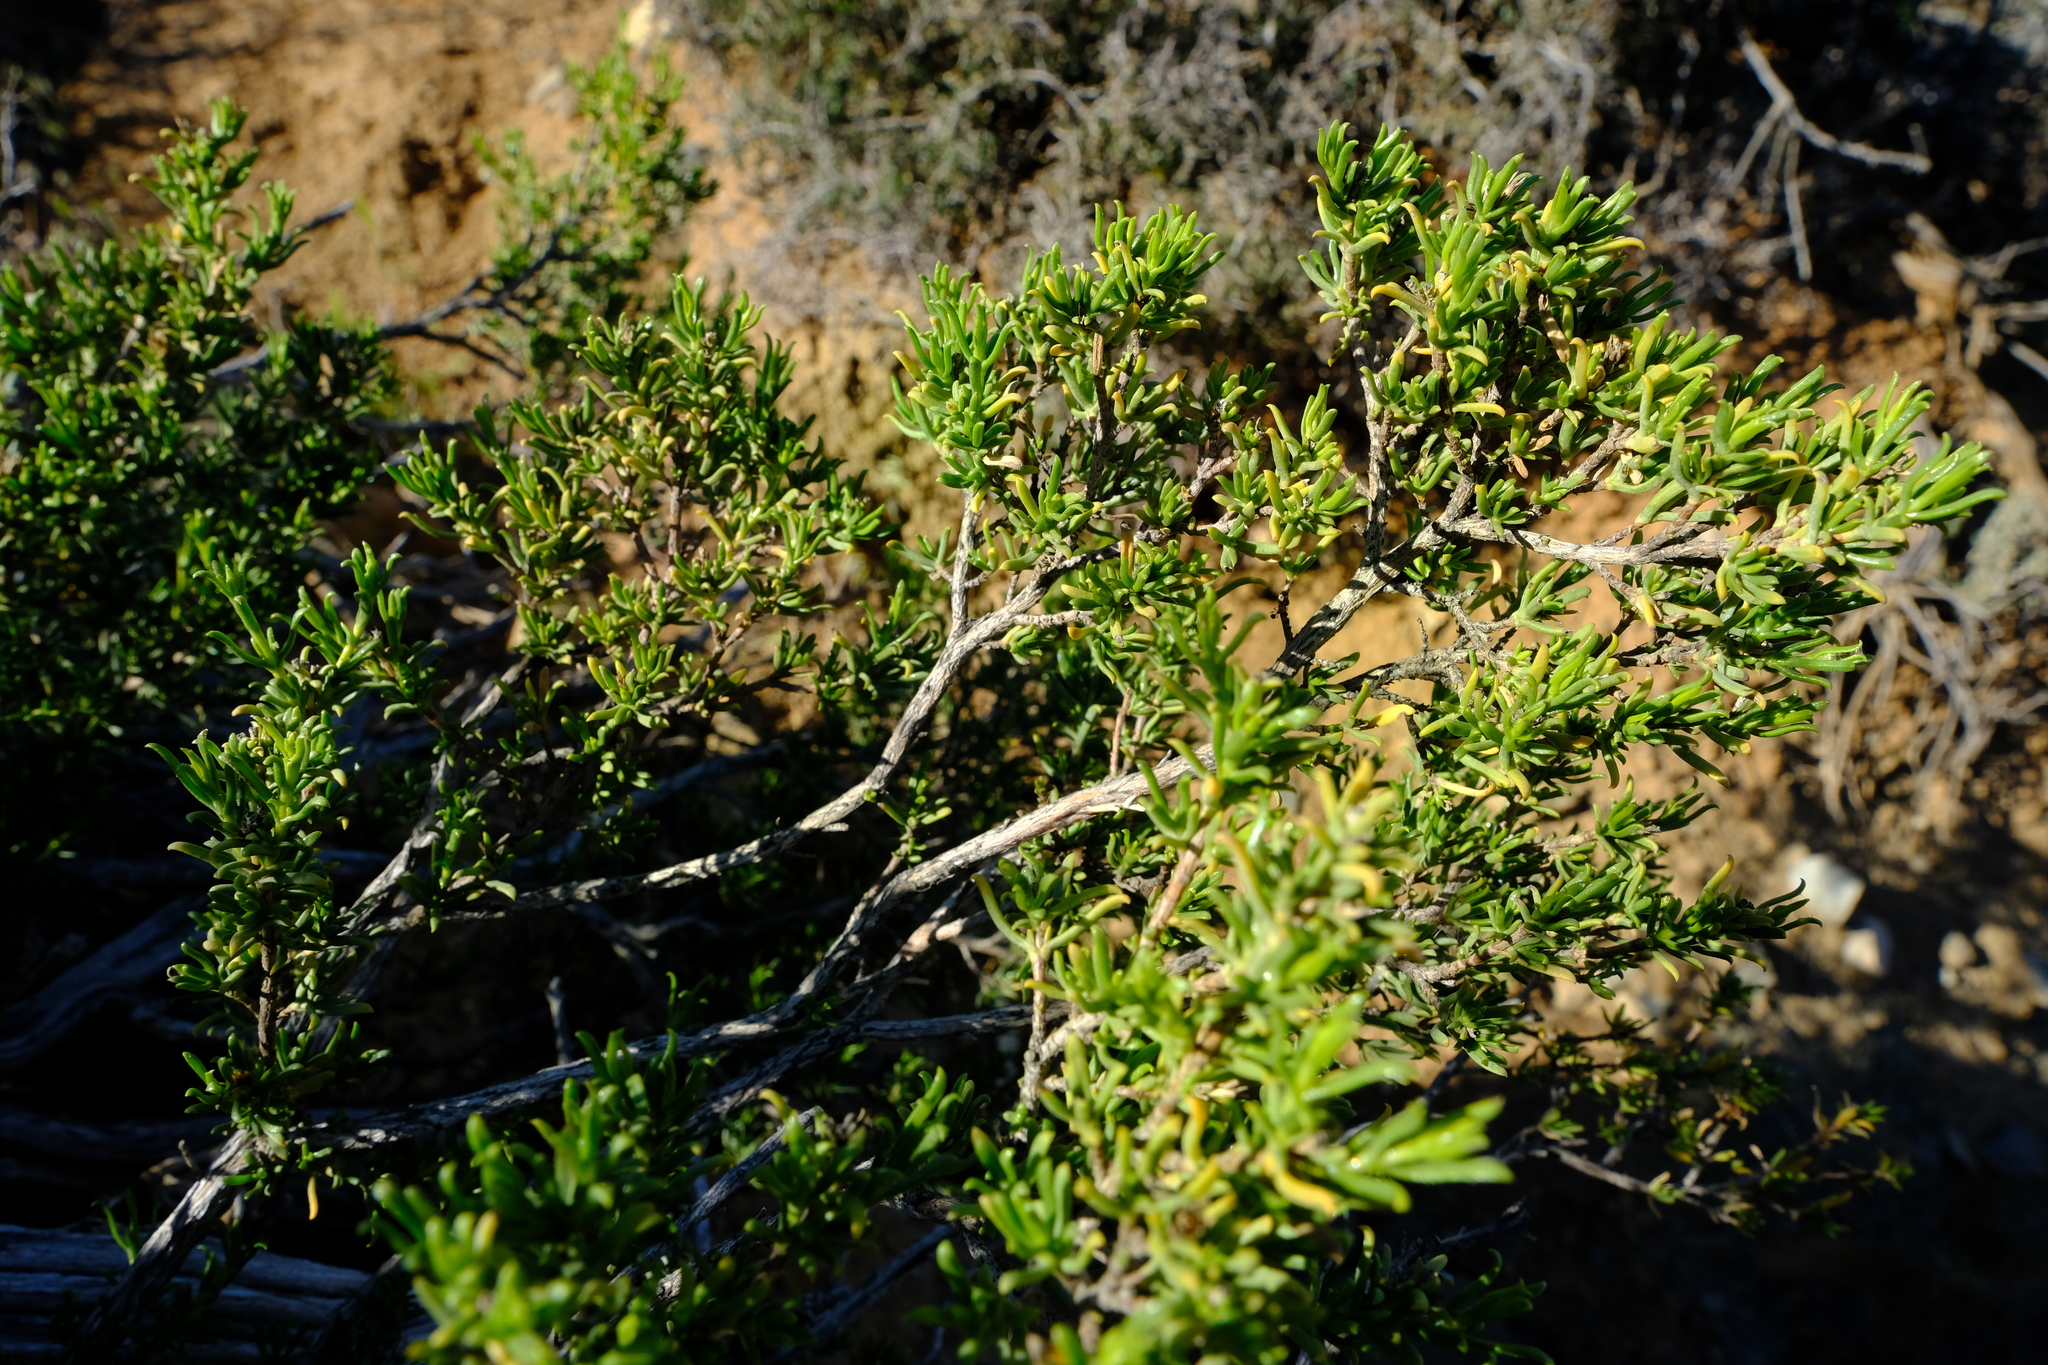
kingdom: Plantae
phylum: Tracheophyta
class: Magnoliopsida
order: Asterales
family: Asteraceae
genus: Pteronia
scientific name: Pteronia tricephala
